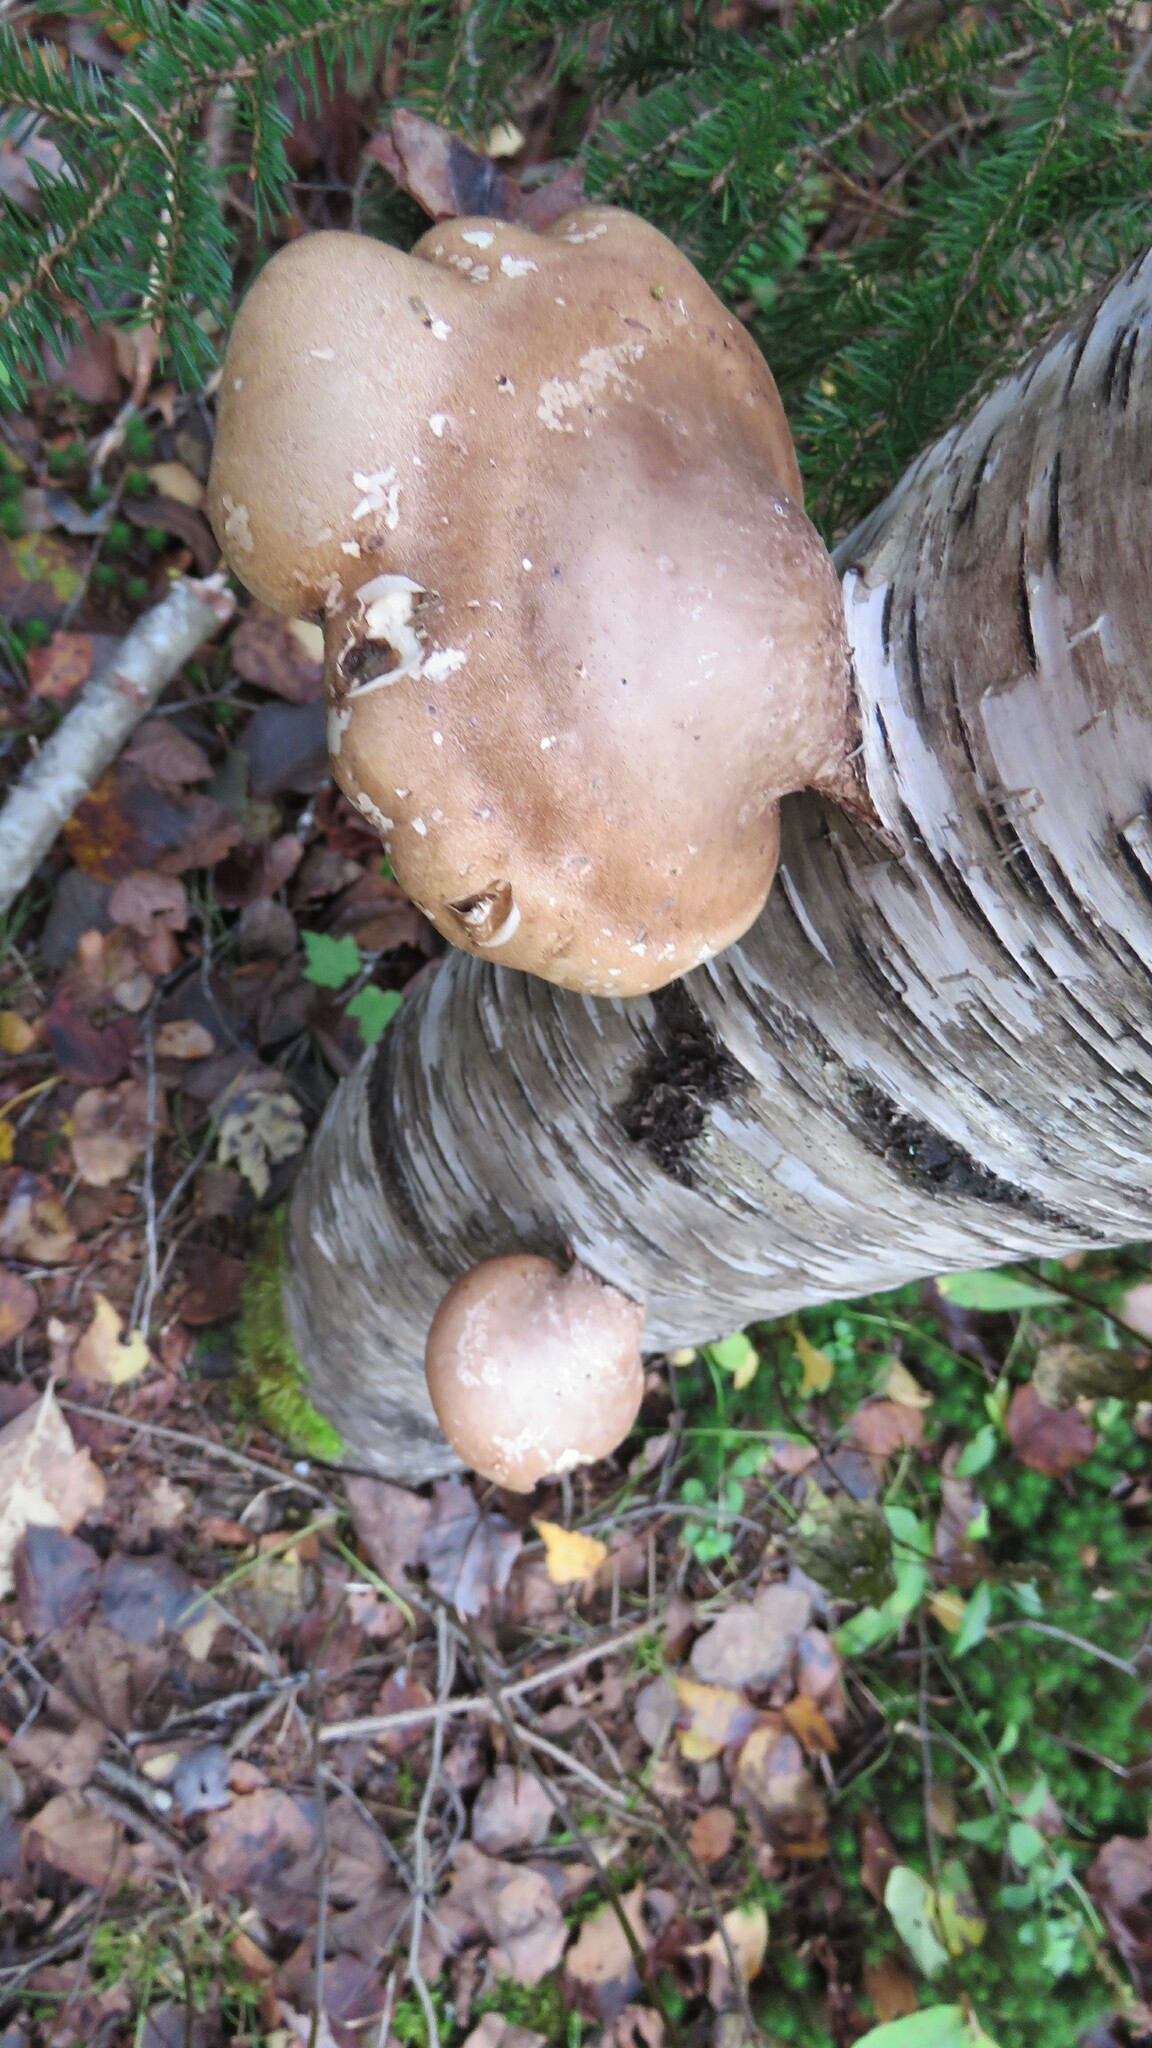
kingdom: Fungi
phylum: Basidiomycota
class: Agaricomycetes
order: Polyporales
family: Fomitopsidaceae
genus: Fomitopsis
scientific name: Fomitopsis betulina
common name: Birch polypore
